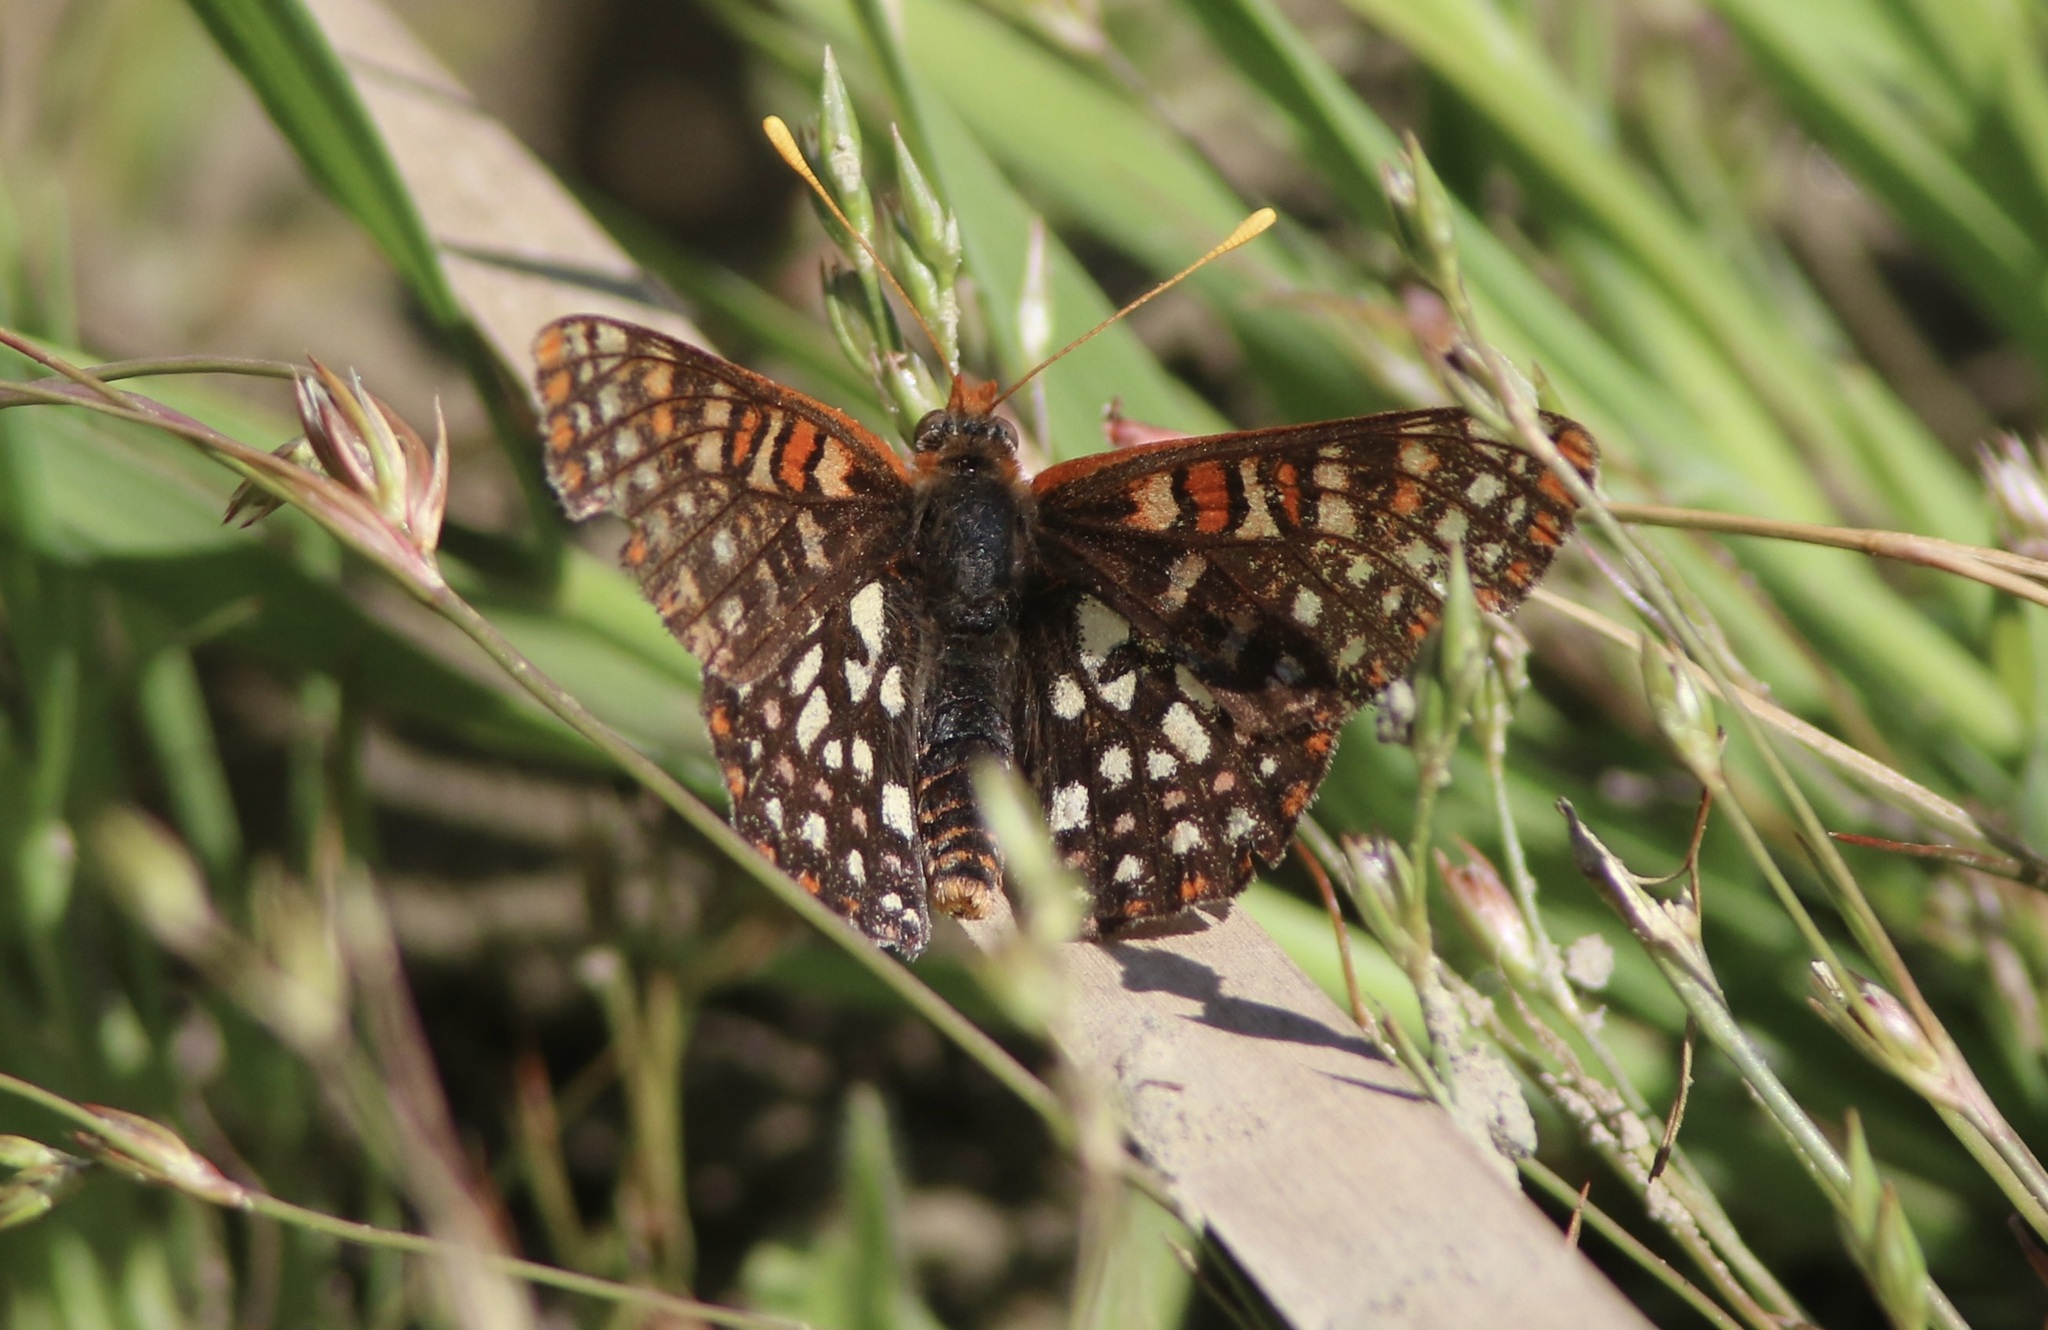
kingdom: Animalia
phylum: Arthropoda
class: Insecta
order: Lepidoptera
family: Nymphalidae
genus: Occidryas
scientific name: Occidryas chalcedona
